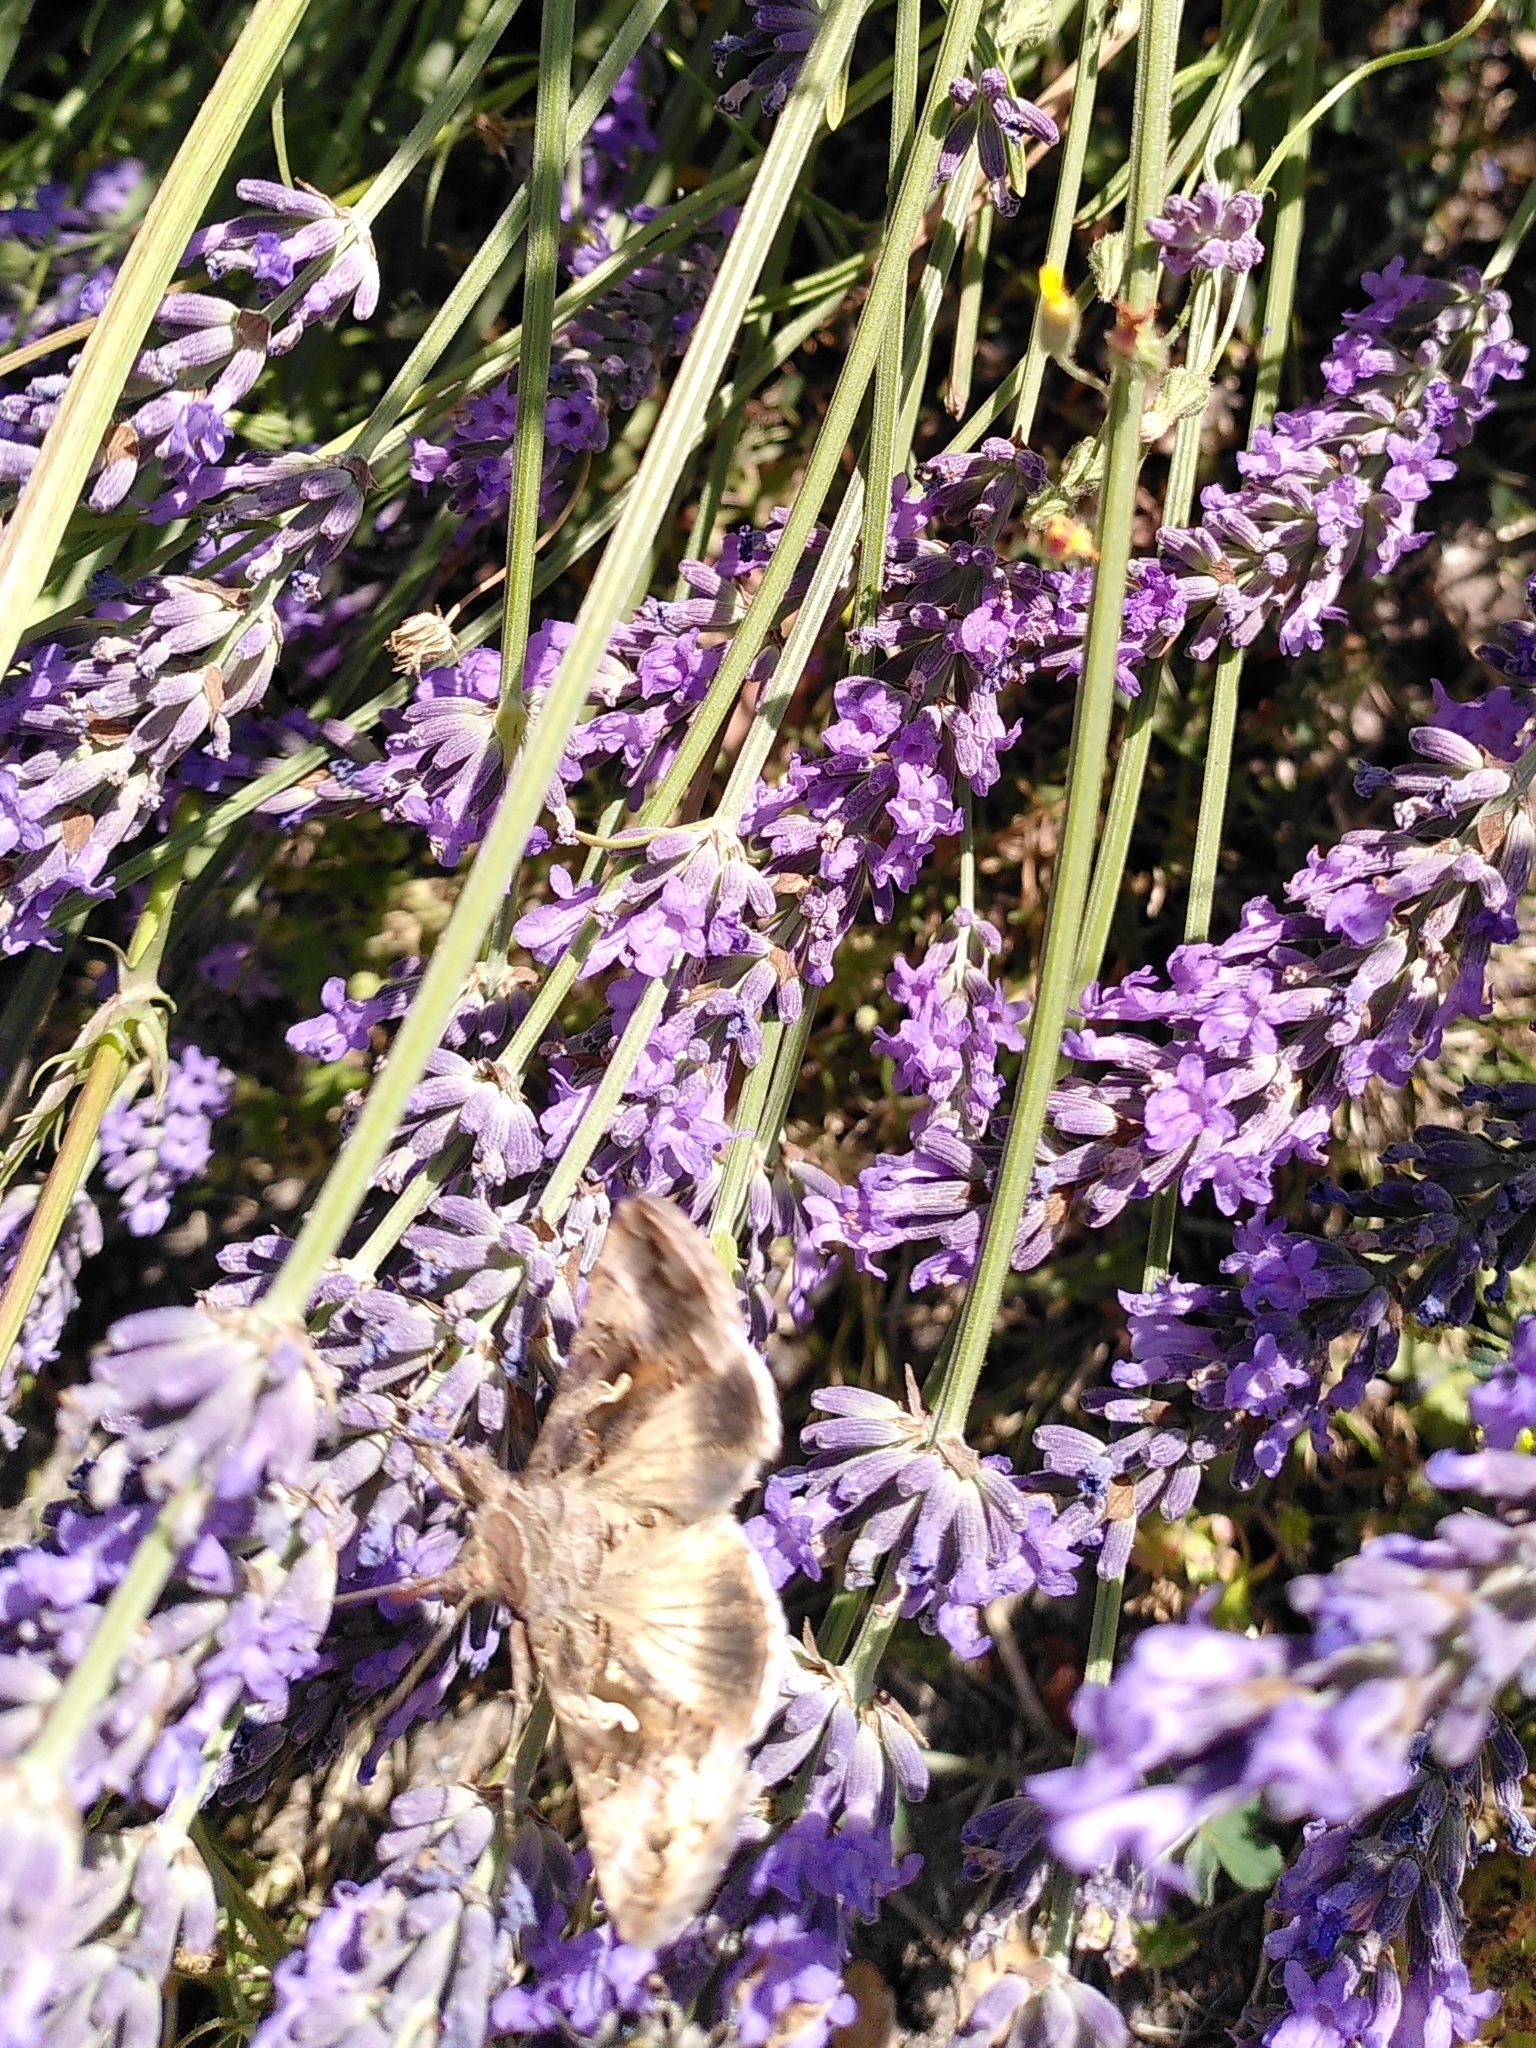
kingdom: Animalia
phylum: Arthropoda
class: Insecta
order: Lepidoptera
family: Noctuidae
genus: Autographa
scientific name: Autographa gamma
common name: Silver y
